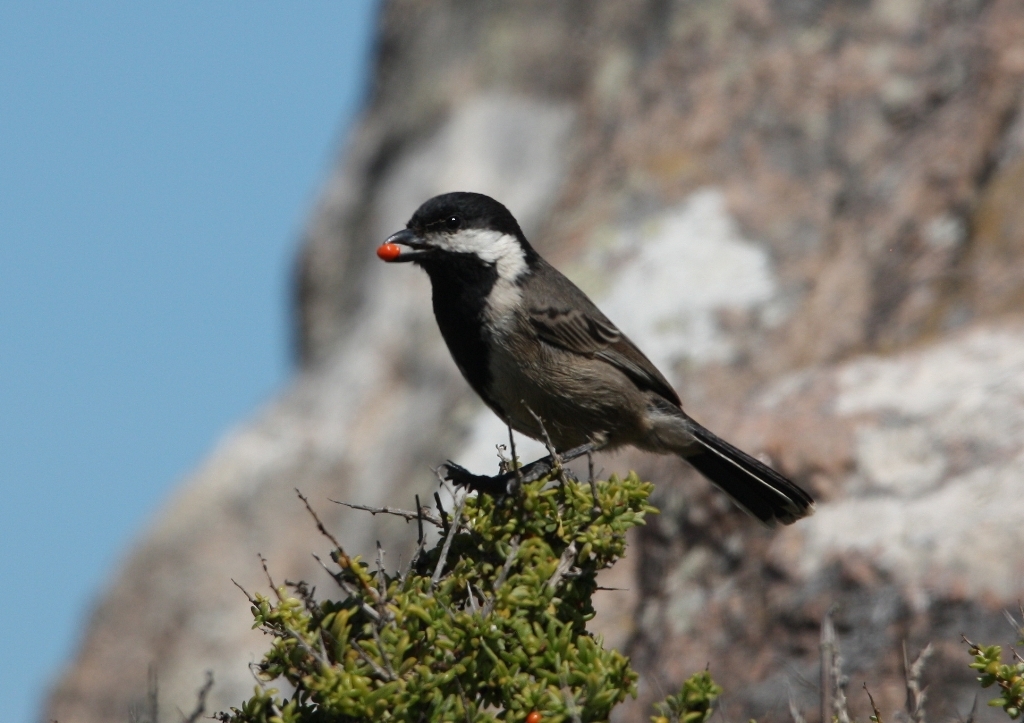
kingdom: Animalia
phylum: Chordata
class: Aves
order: Passeriformes
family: Paridae
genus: Parus
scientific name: Parus afer
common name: Grey tit
